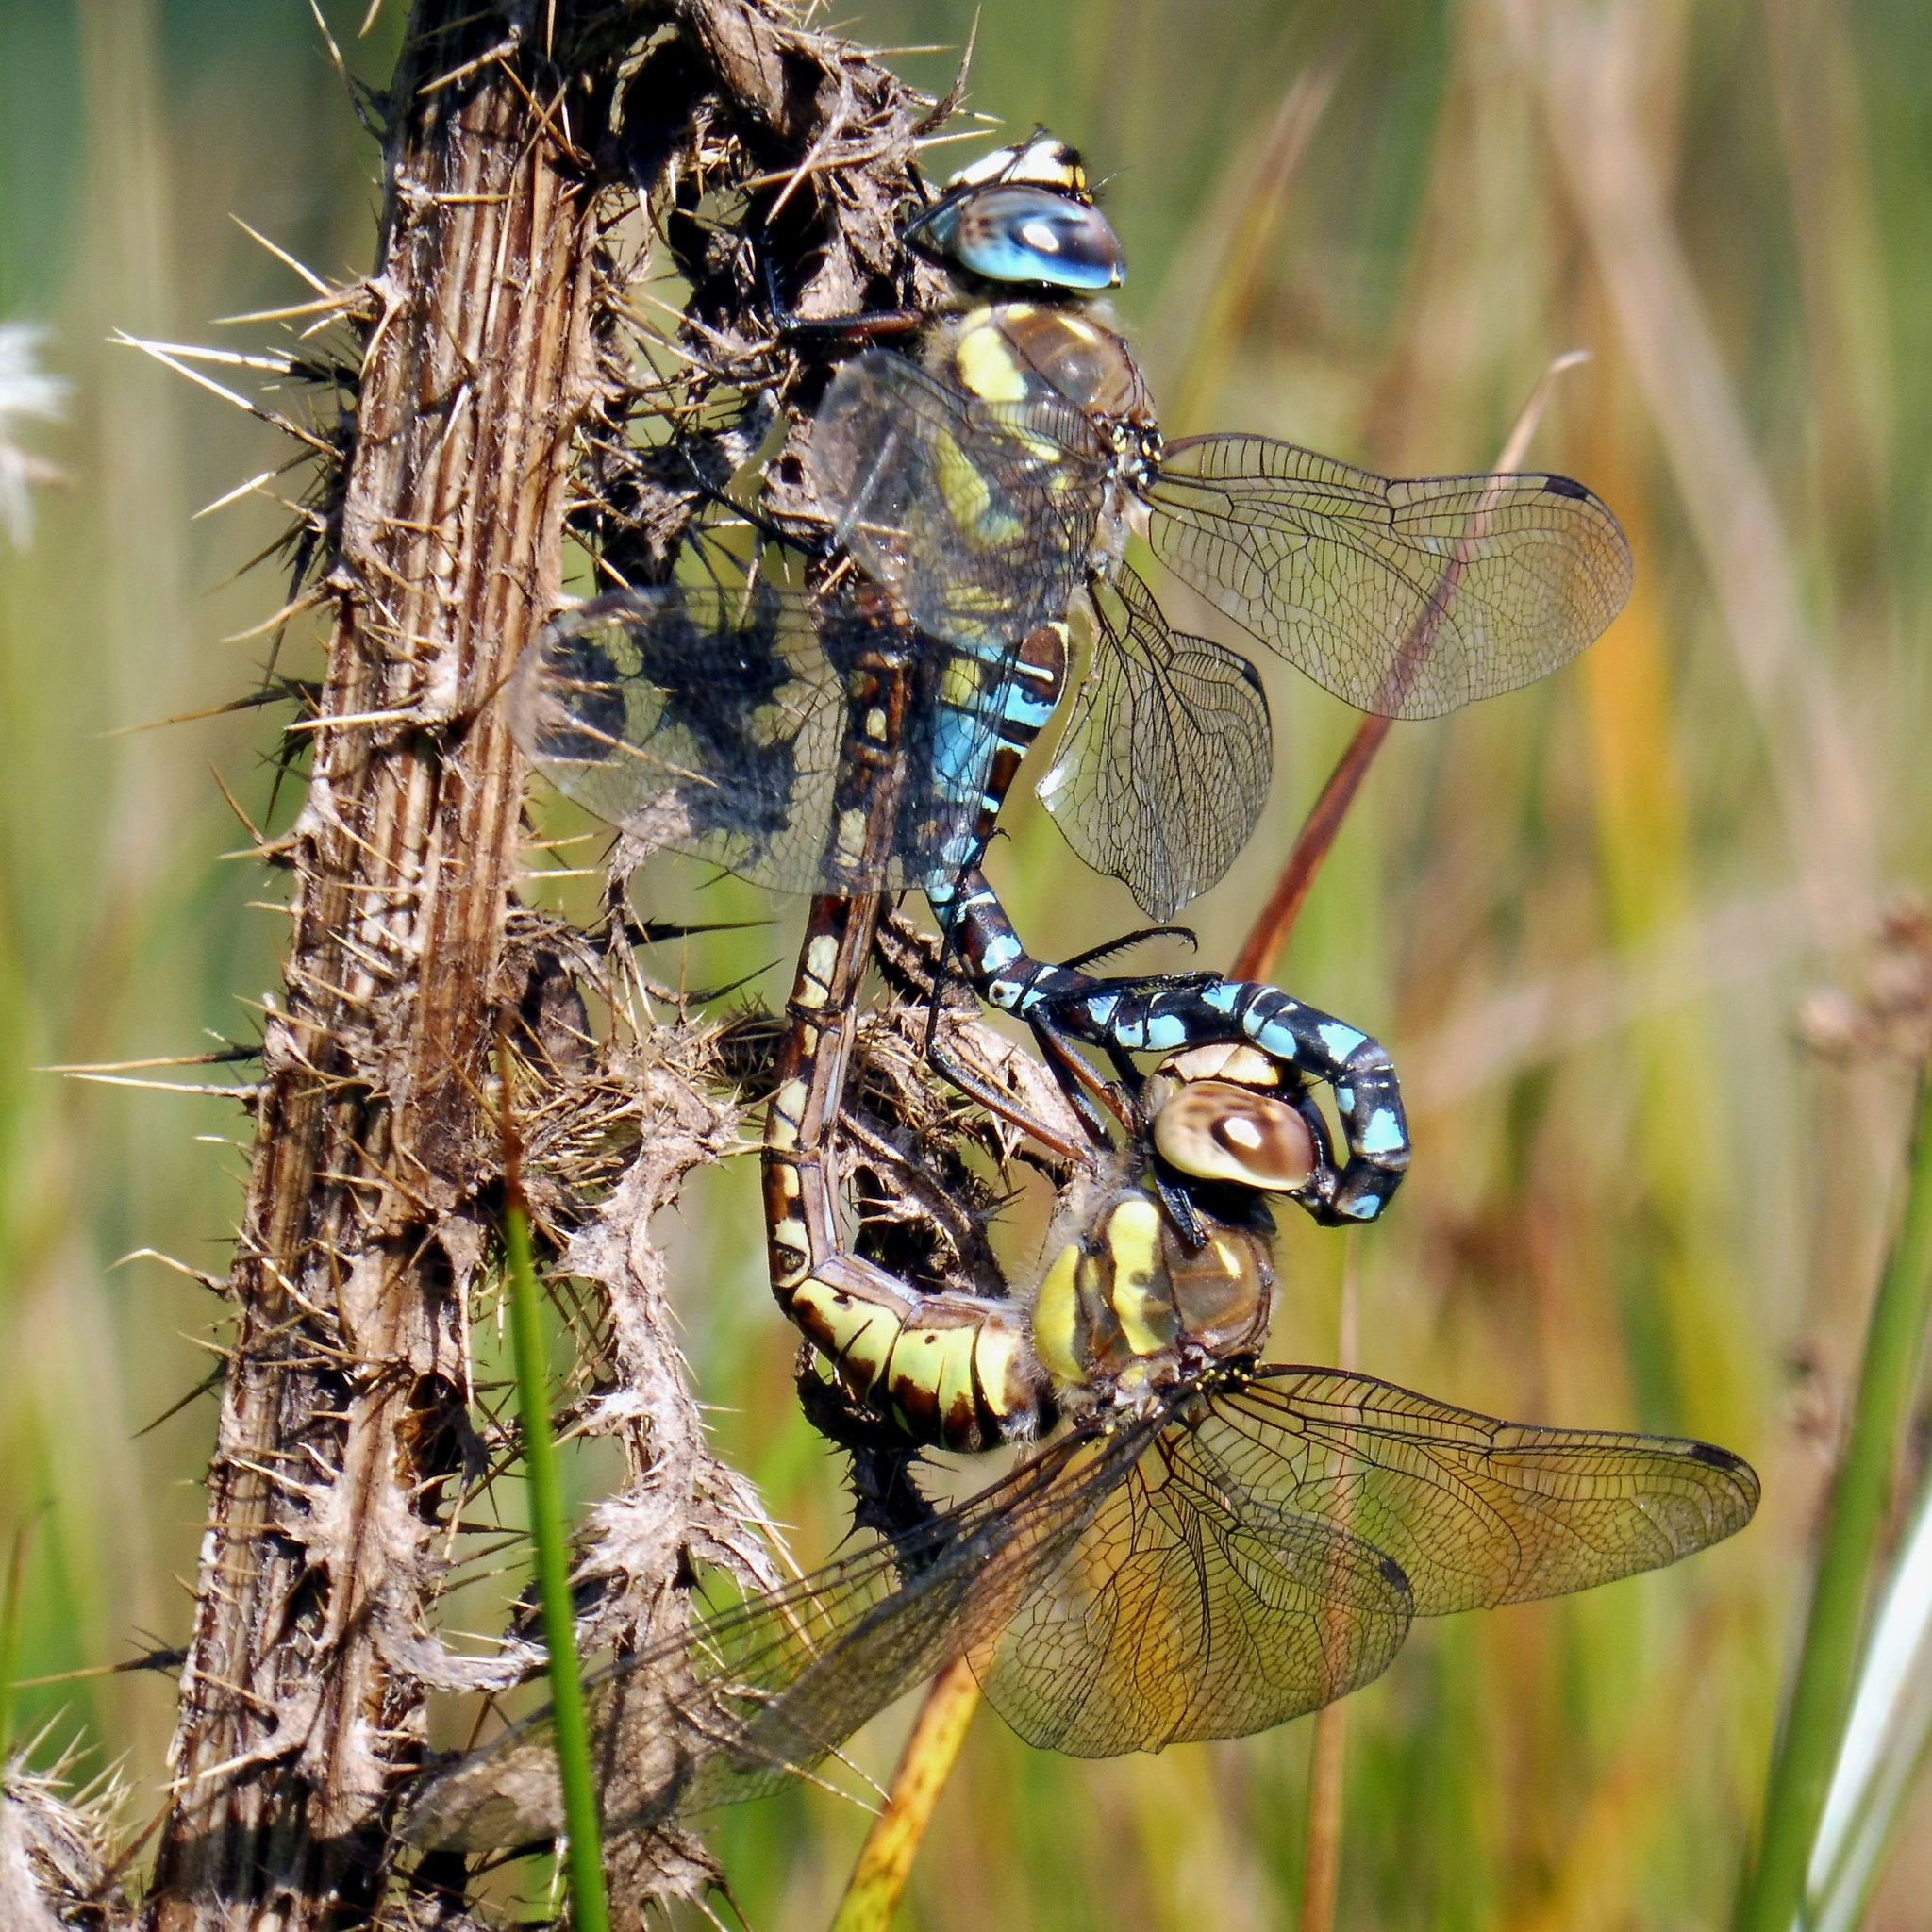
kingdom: Animalia
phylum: Arthropoda
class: Insecta
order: Odonata
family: Aeshnidae
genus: Aeshna
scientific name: Aeshna mixta
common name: Migrant hawker
